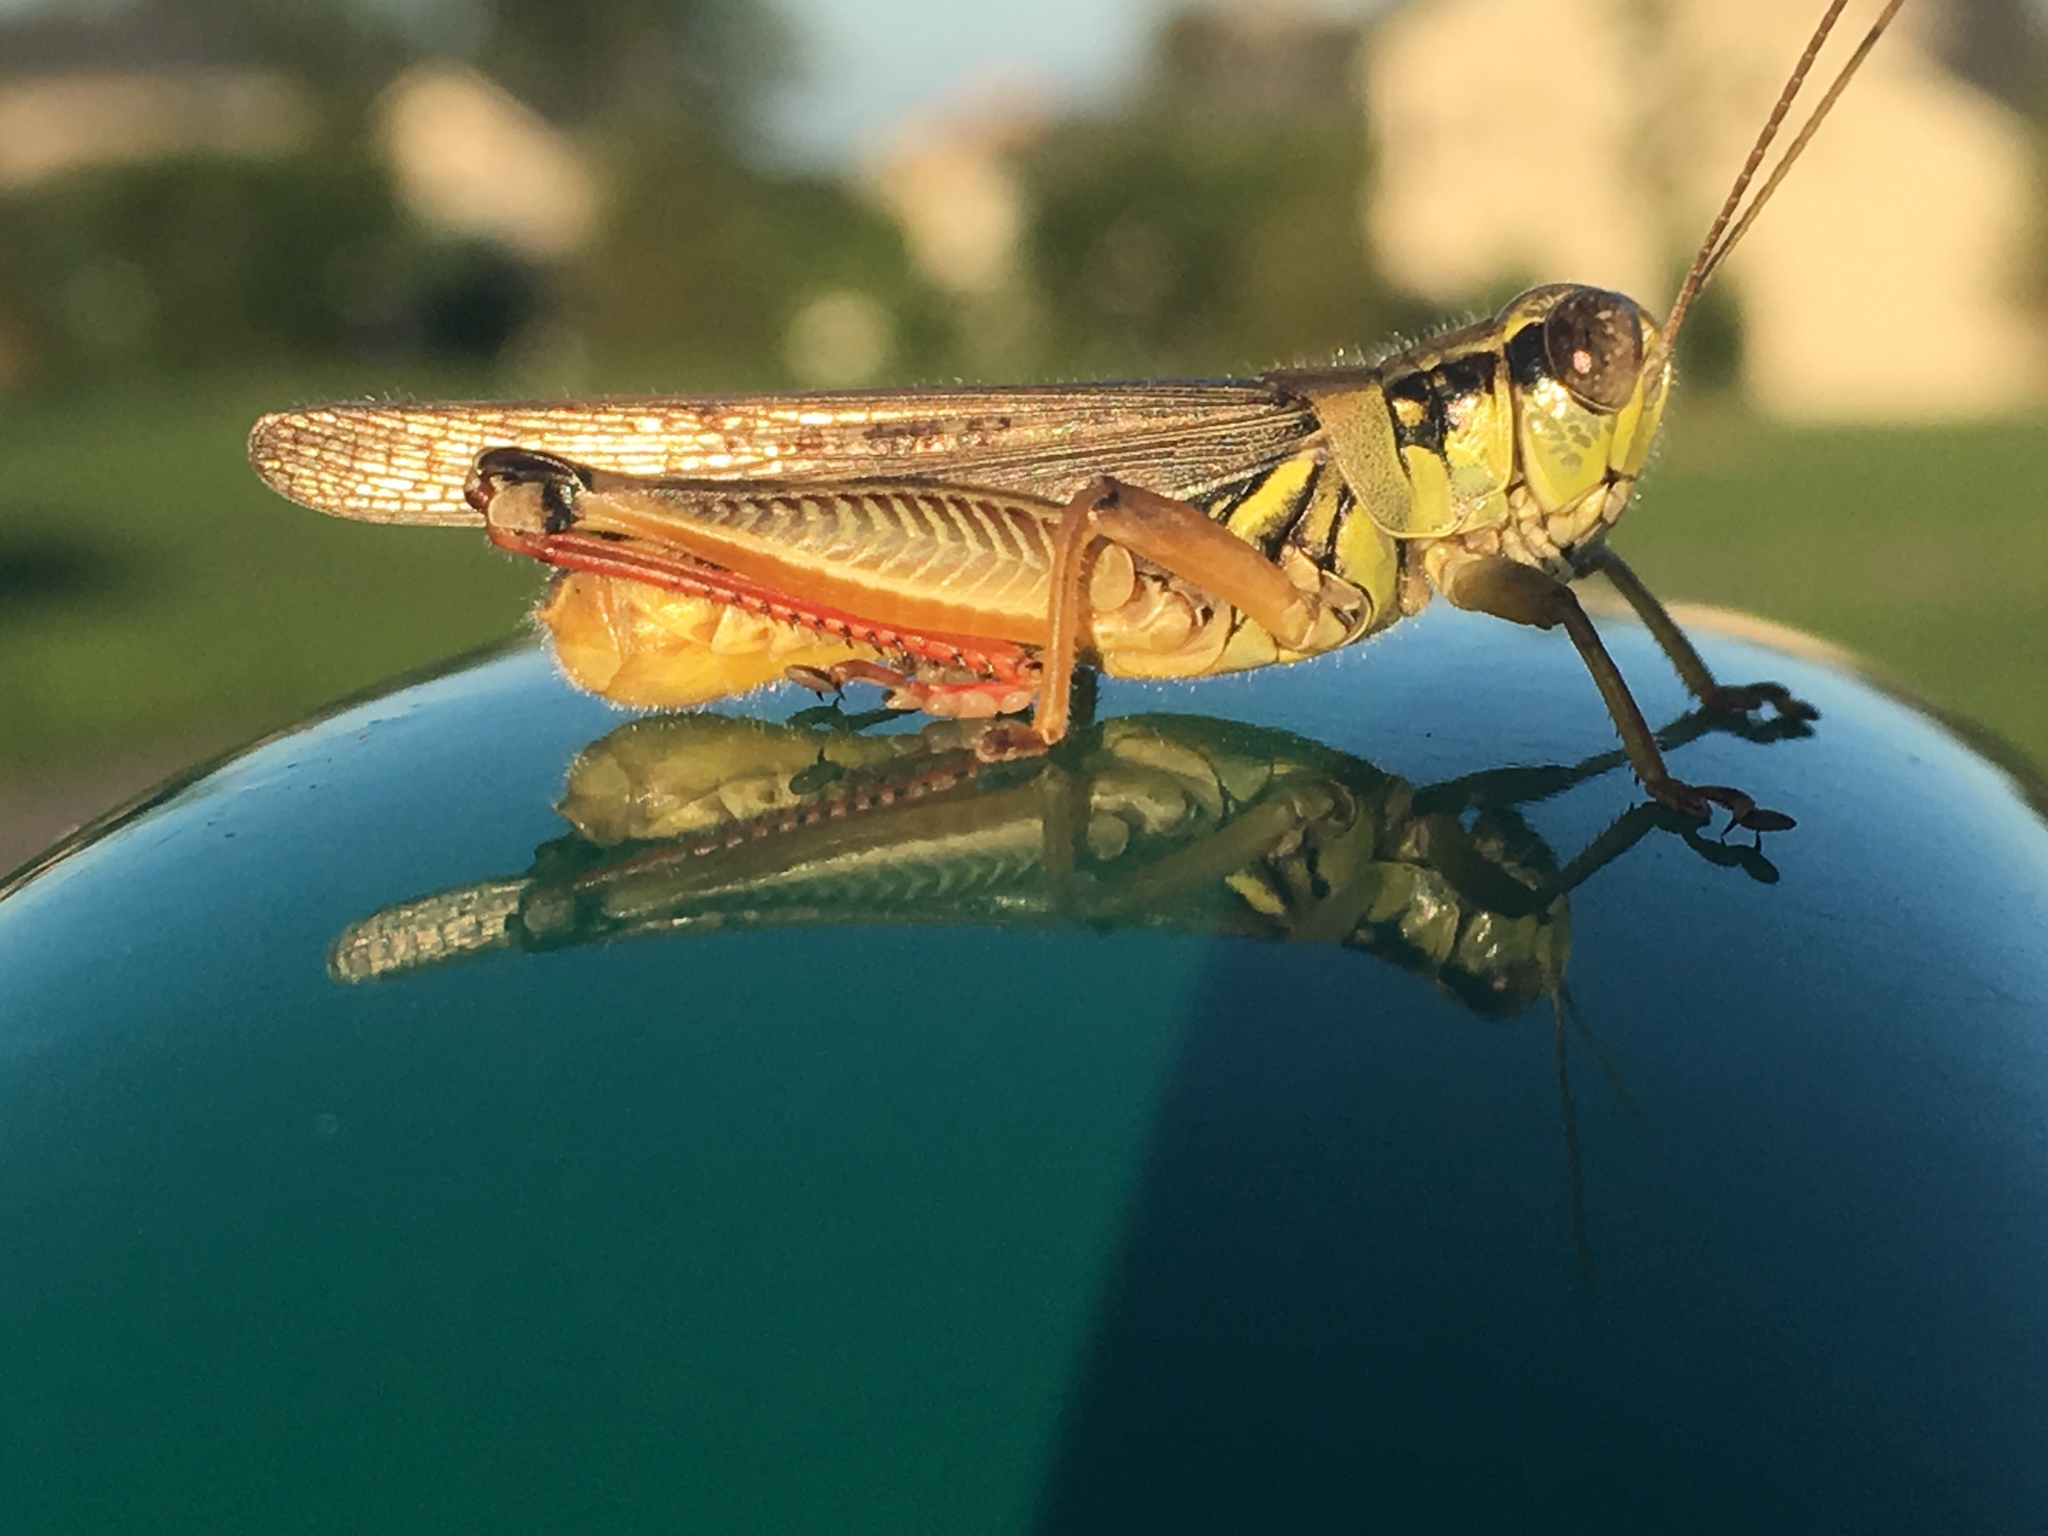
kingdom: Animalia
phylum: Arthropoda
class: Insecta
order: Orthoptera
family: Acrididae
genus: Melanoplus
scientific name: Melanoplus femurrubrum
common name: Red-legged grasshopper
